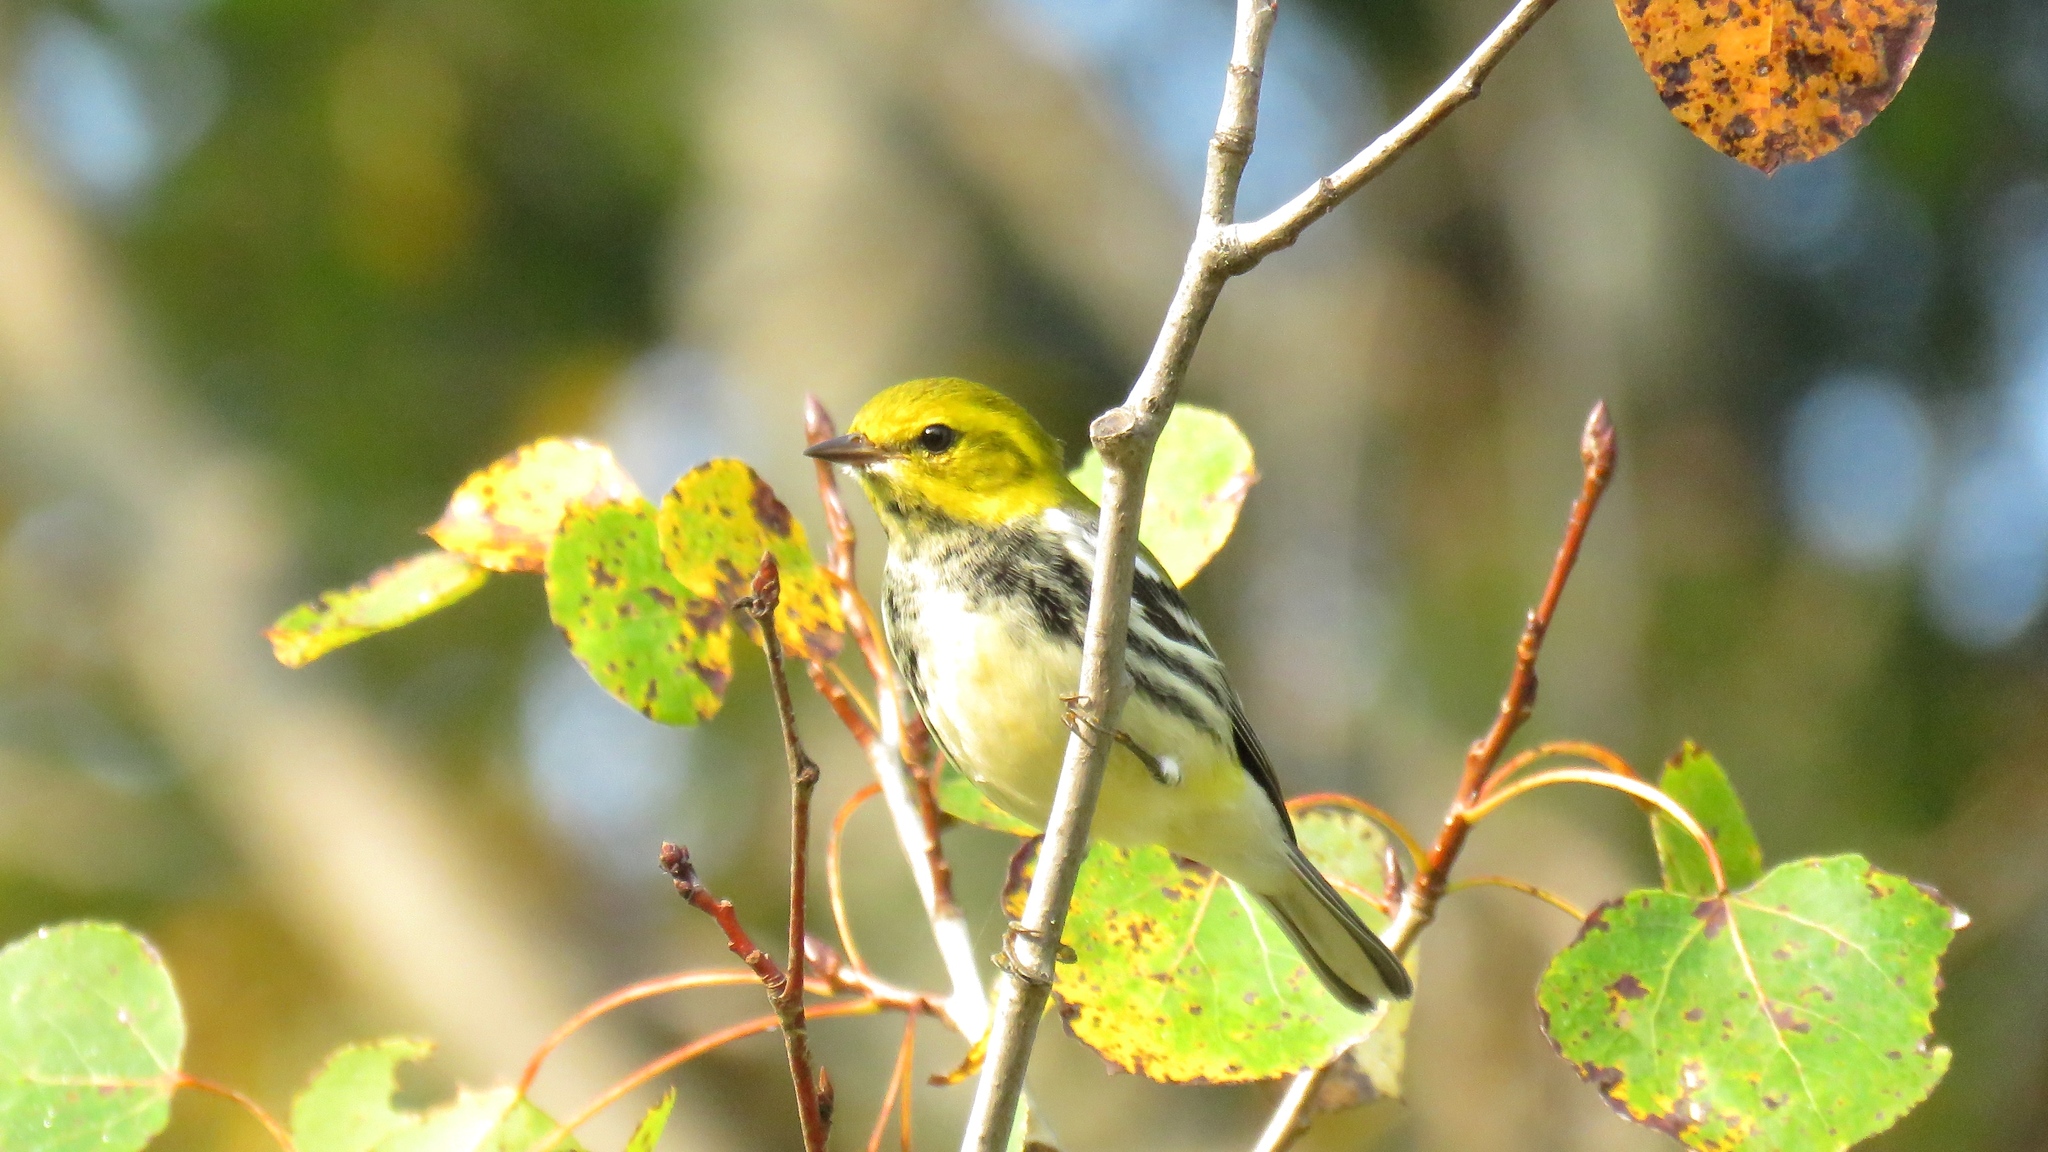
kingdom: Animalia
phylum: Chordata
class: Aves
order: Passeriformes
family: Parulidae
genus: Setophaga
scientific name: Setophaga virens
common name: Black-throated green warbler
